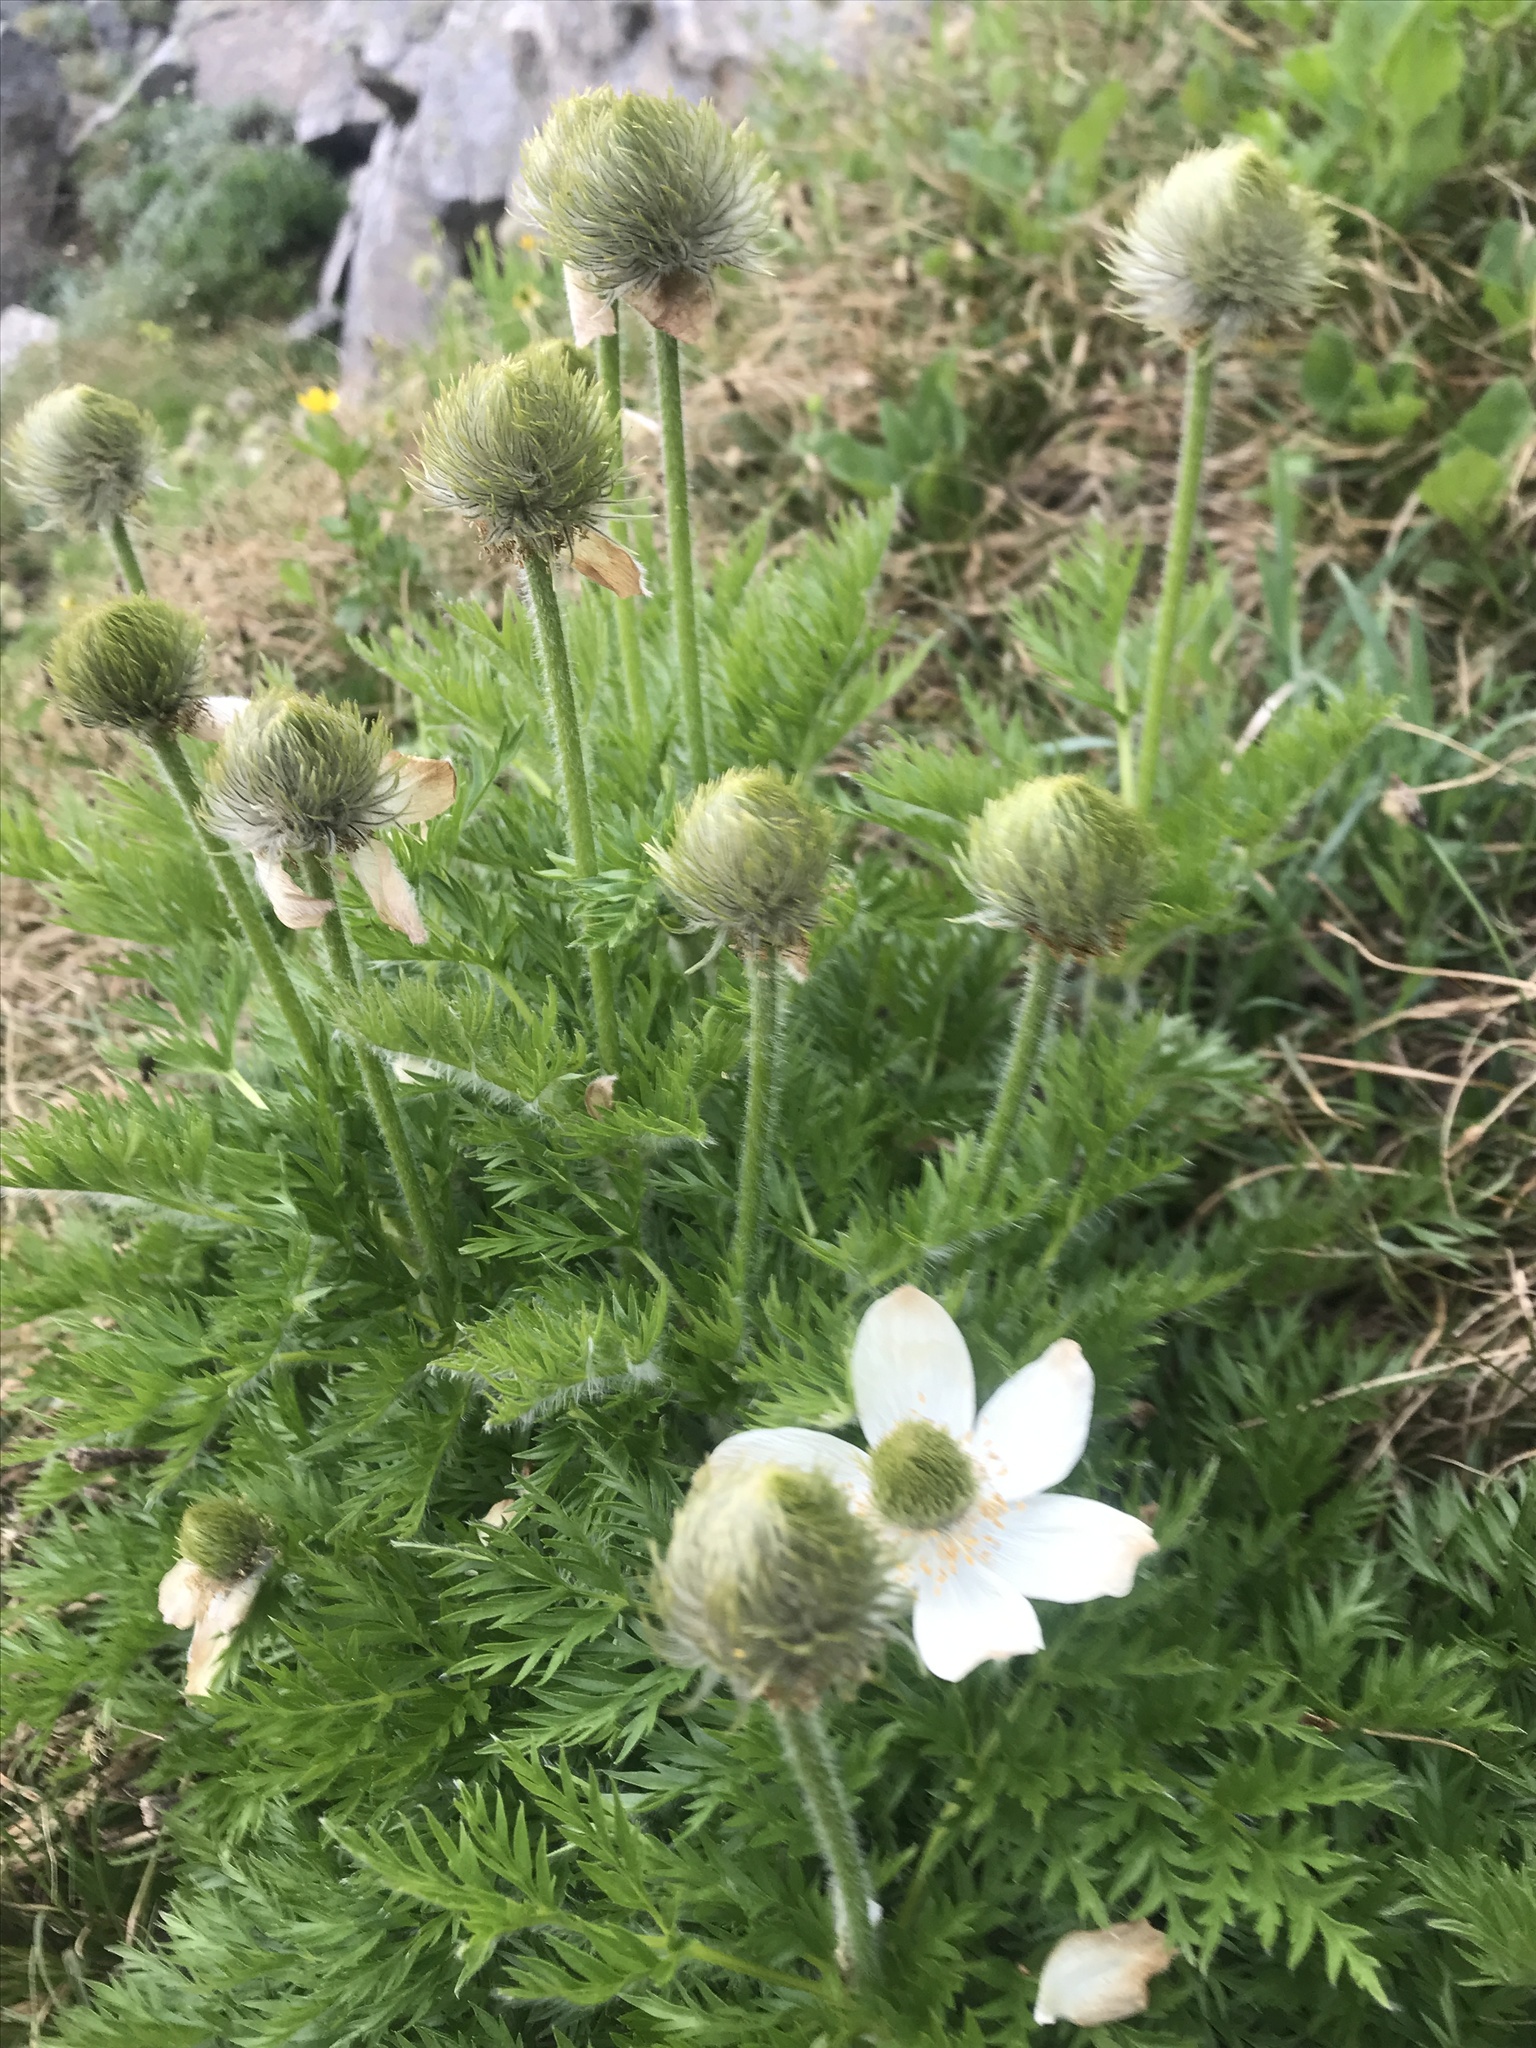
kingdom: Plantae
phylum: Tracheophyta
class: Magnoliopsida
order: Ranunculales
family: Ranunculaceae
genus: Pulsatilla
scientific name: Pulsatilla occidentalis
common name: Mountain pasqueflower
